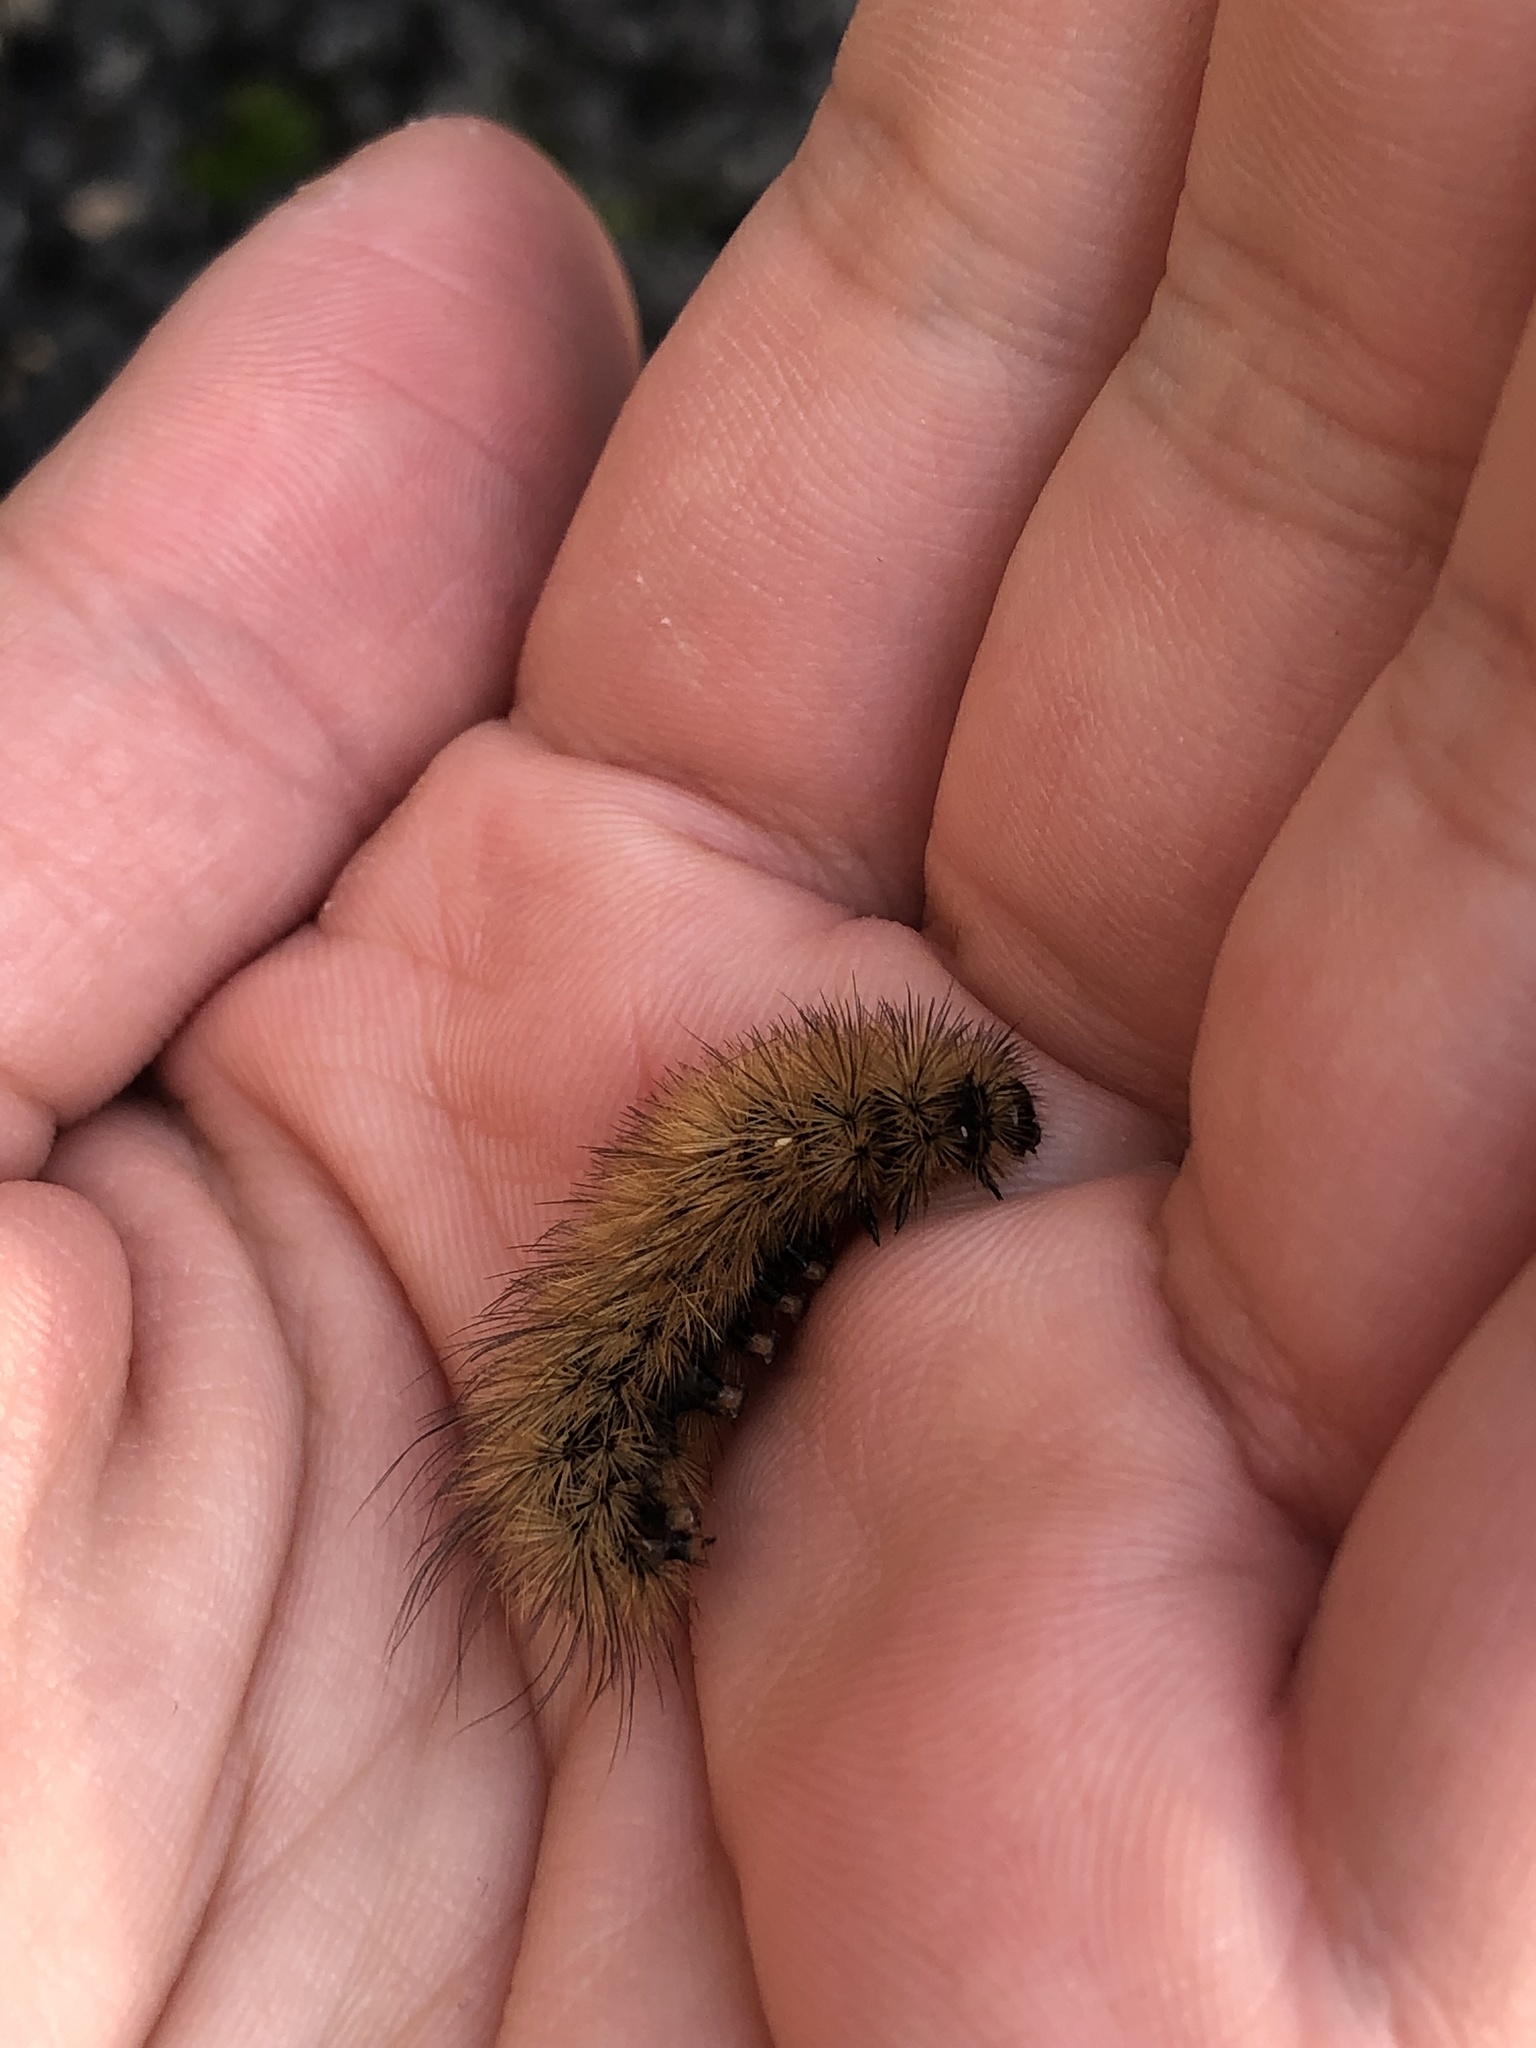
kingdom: Animalia
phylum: Arthropoda
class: Insecta
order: Lepidoptera
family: Erebidae
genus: Phragmatobia
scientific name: Phragmatobia fuliginosa
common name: Ruby tiger
